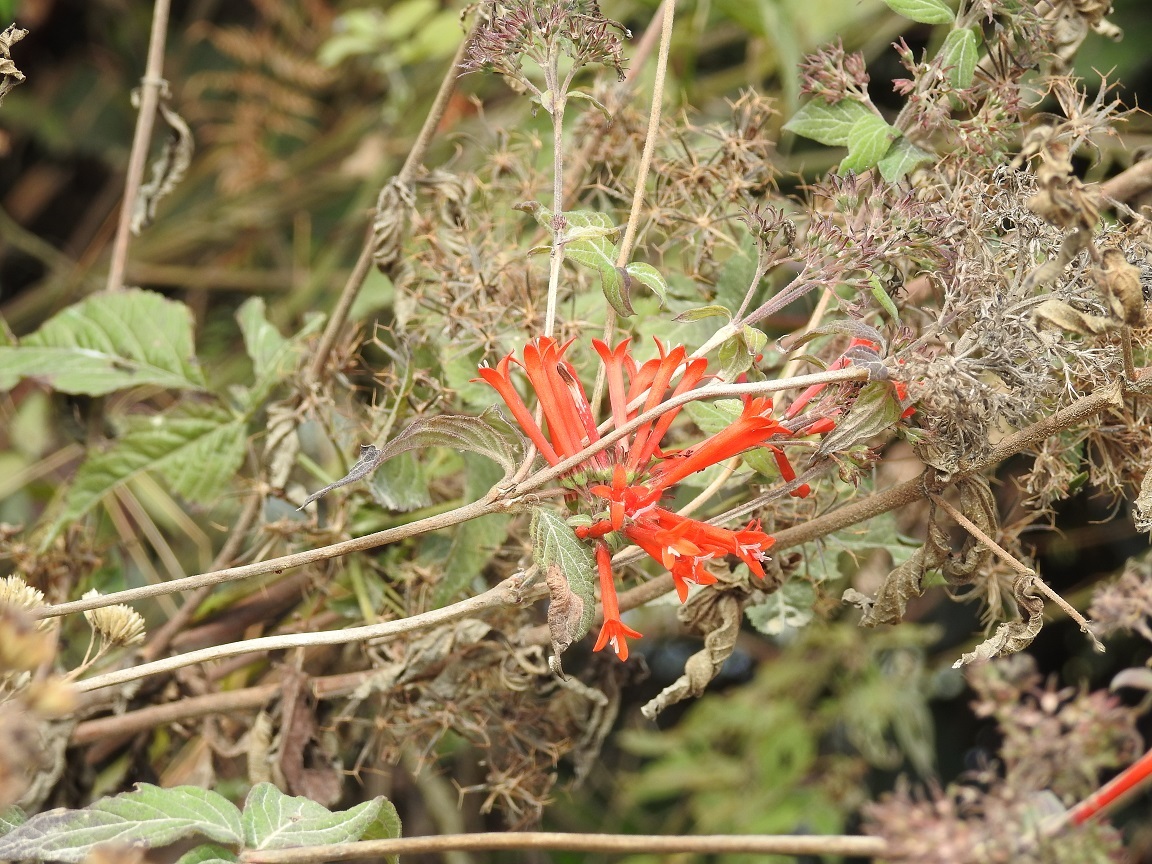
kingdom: Plantae
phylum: Tracheophyta
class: Magnoliopsida
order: Gentianales
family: Rubiaceae
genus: Bouvardia
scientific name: Bouvardia ternifolia
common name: Scarlet bouvardia
